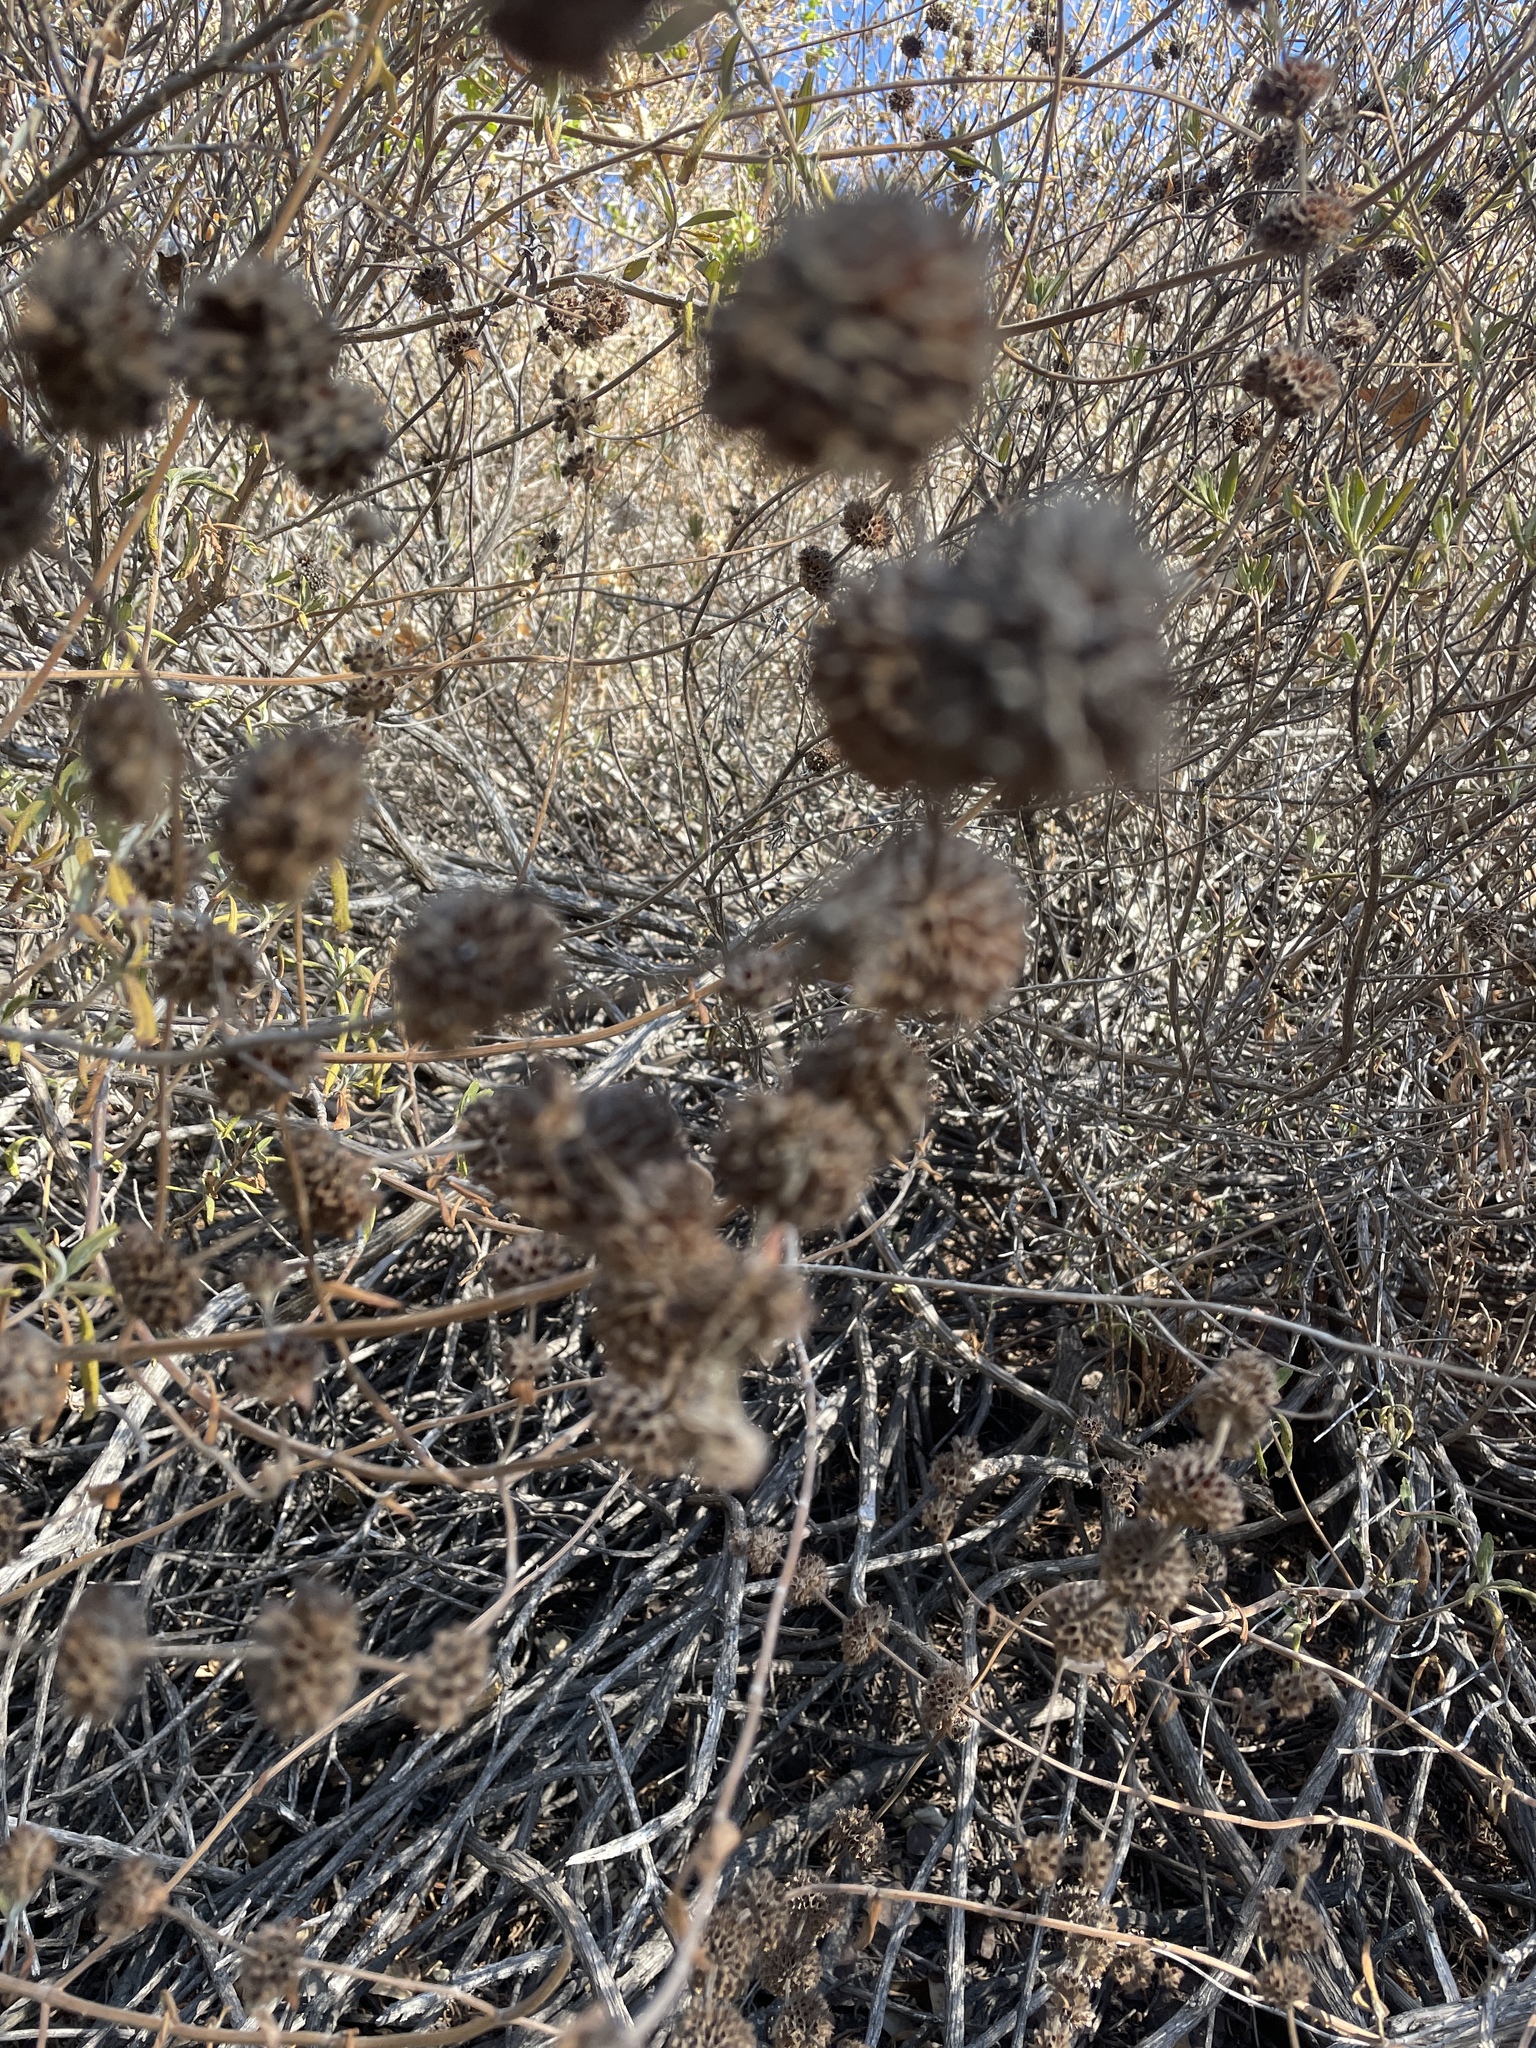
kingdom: Plantae
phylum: Tracheophyta
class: Magnoliopsida
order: Lamiales
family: Lamiaceae
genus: Salvia
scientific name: Salvia mellifera
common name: Black sage
